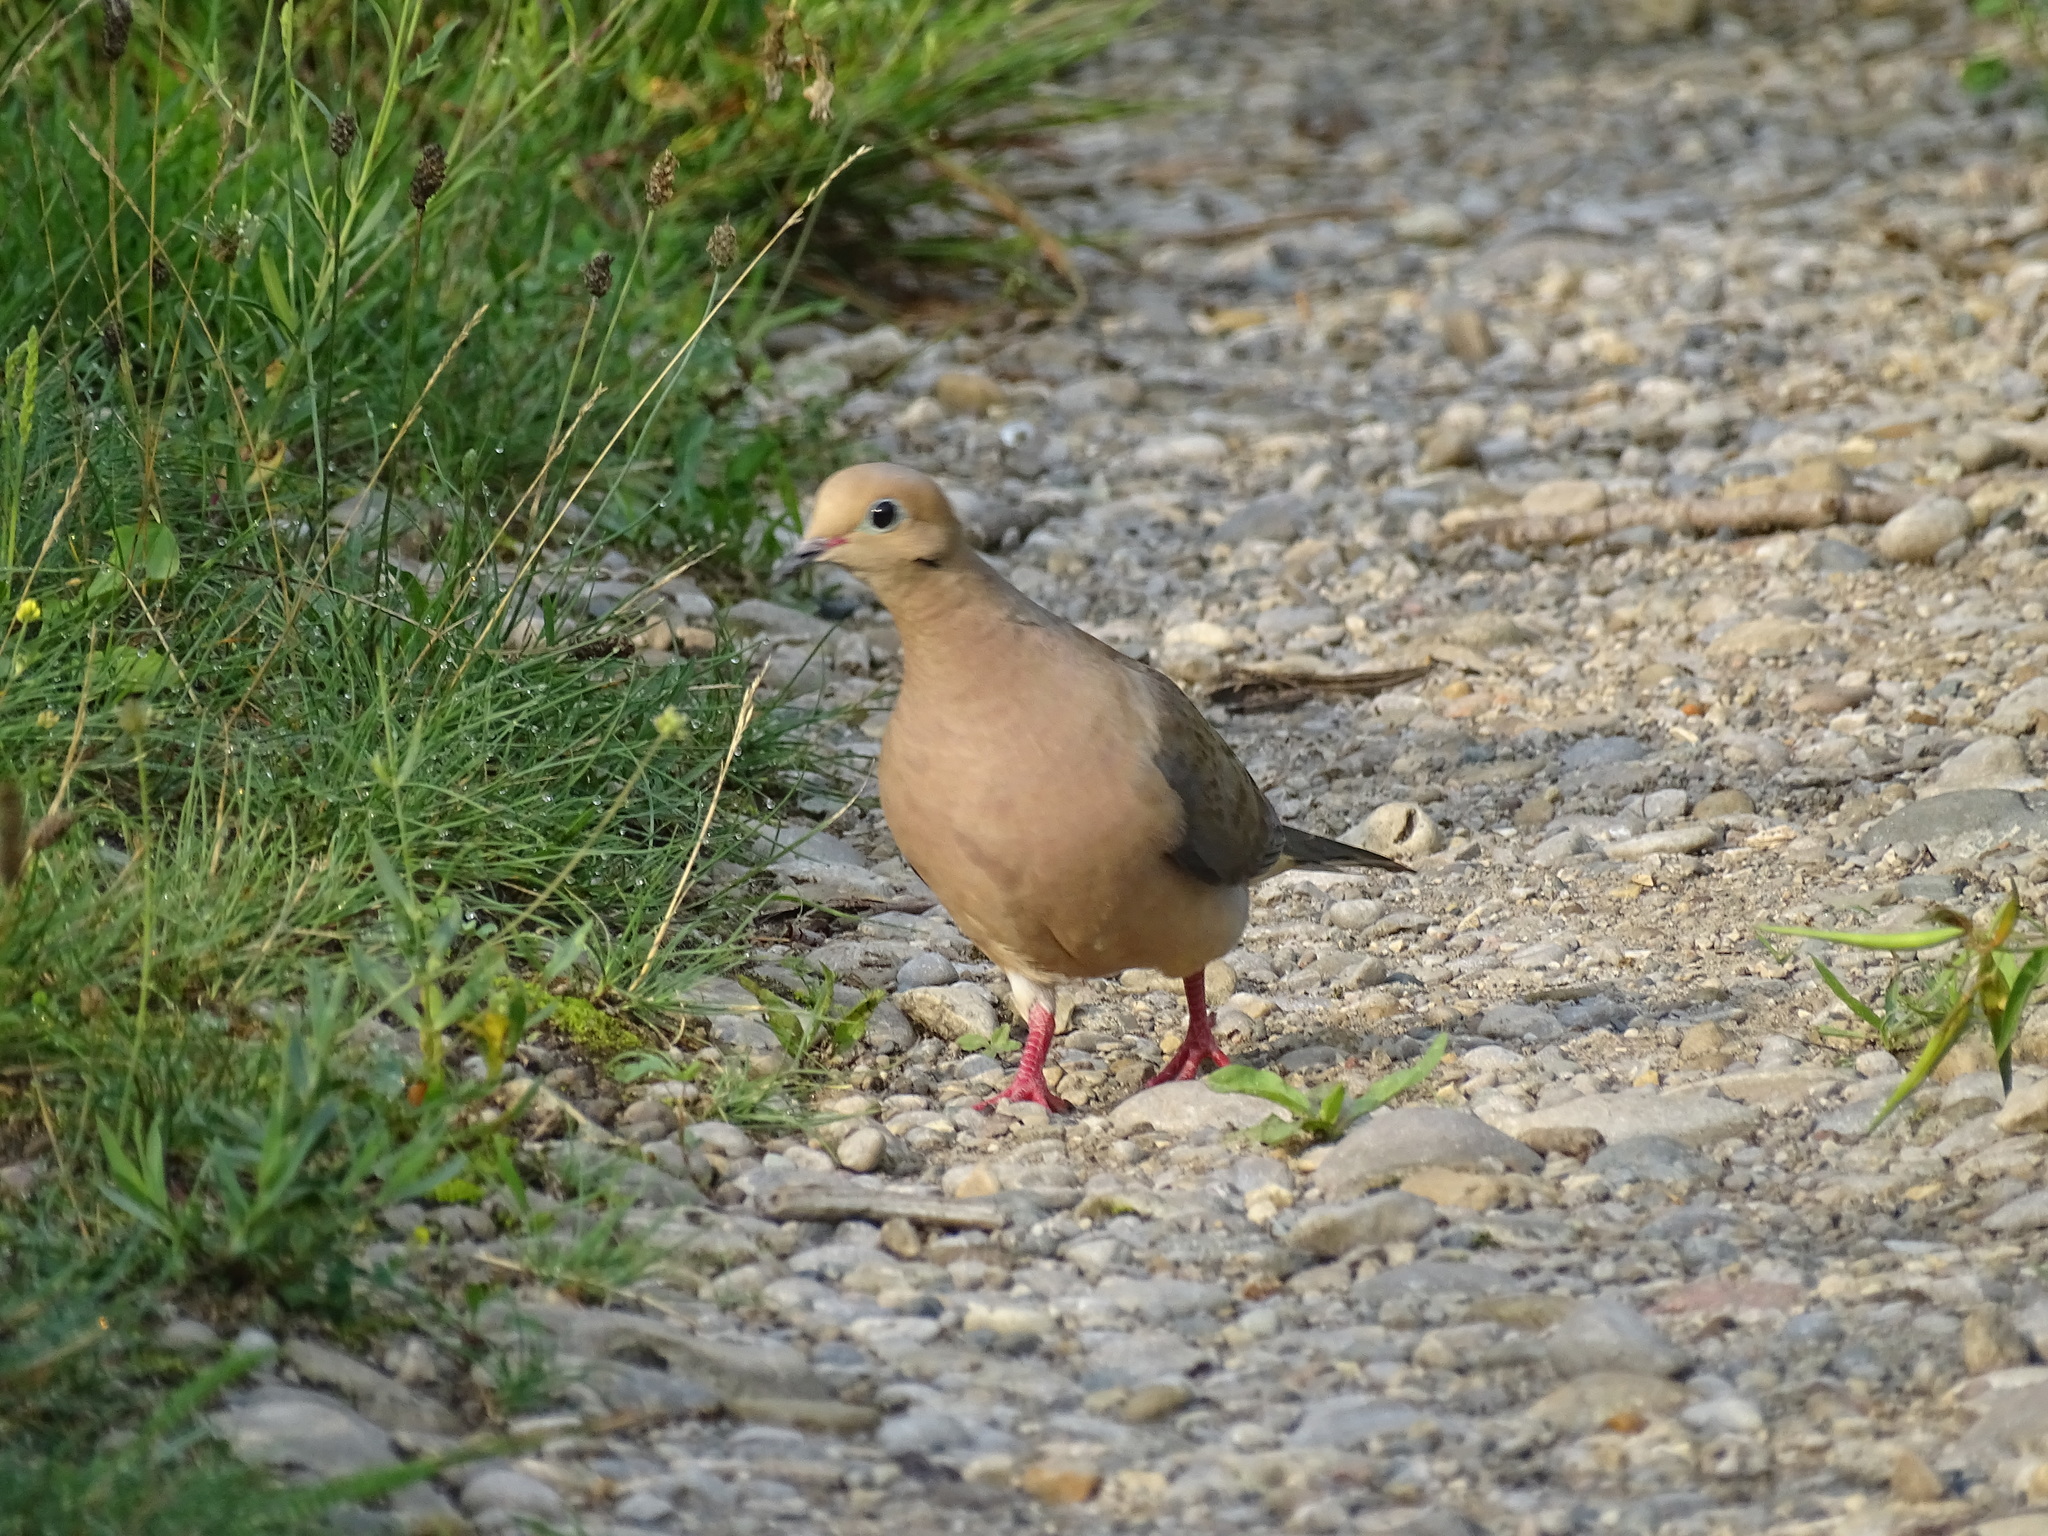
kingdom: Animalia
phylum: Chordata
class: Aves
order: Columbiformes
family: Columbidae
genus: Zenaida
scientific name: Zenaida macroura
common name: Mourning dove
